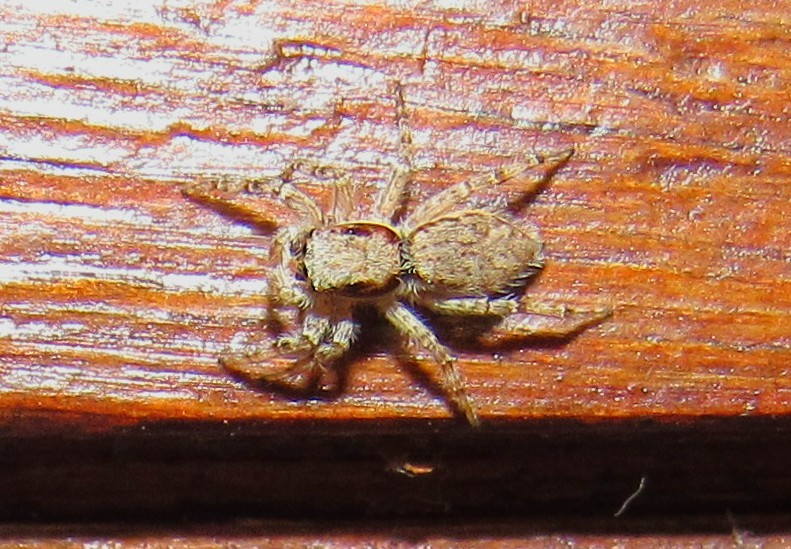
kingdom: Animalia
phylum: Arthropoda
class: Arachnida
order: Araneae
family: Salticidae
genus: Menemerus
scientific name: Menemerus bivittatus
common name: Gray wall jumper
